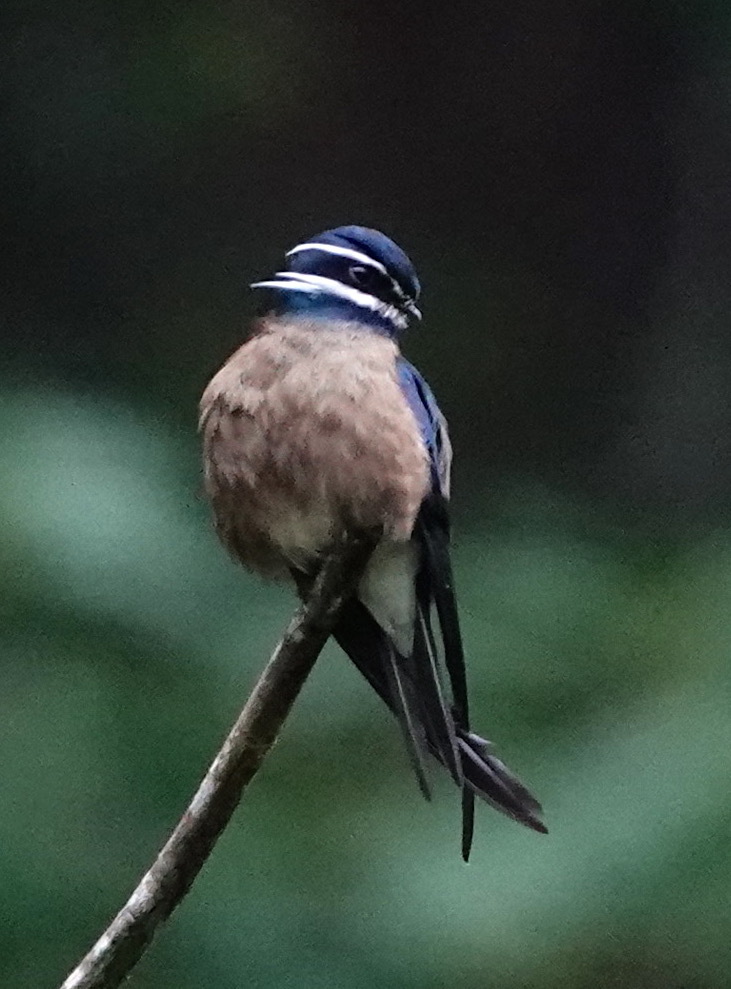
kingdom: Animalia
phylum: Chordata
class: Aves
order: Apodiformes
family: Hemiprocnidae
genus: Hemiprocne
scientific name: Hemiprocne comata
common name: Whiskered treeswift
